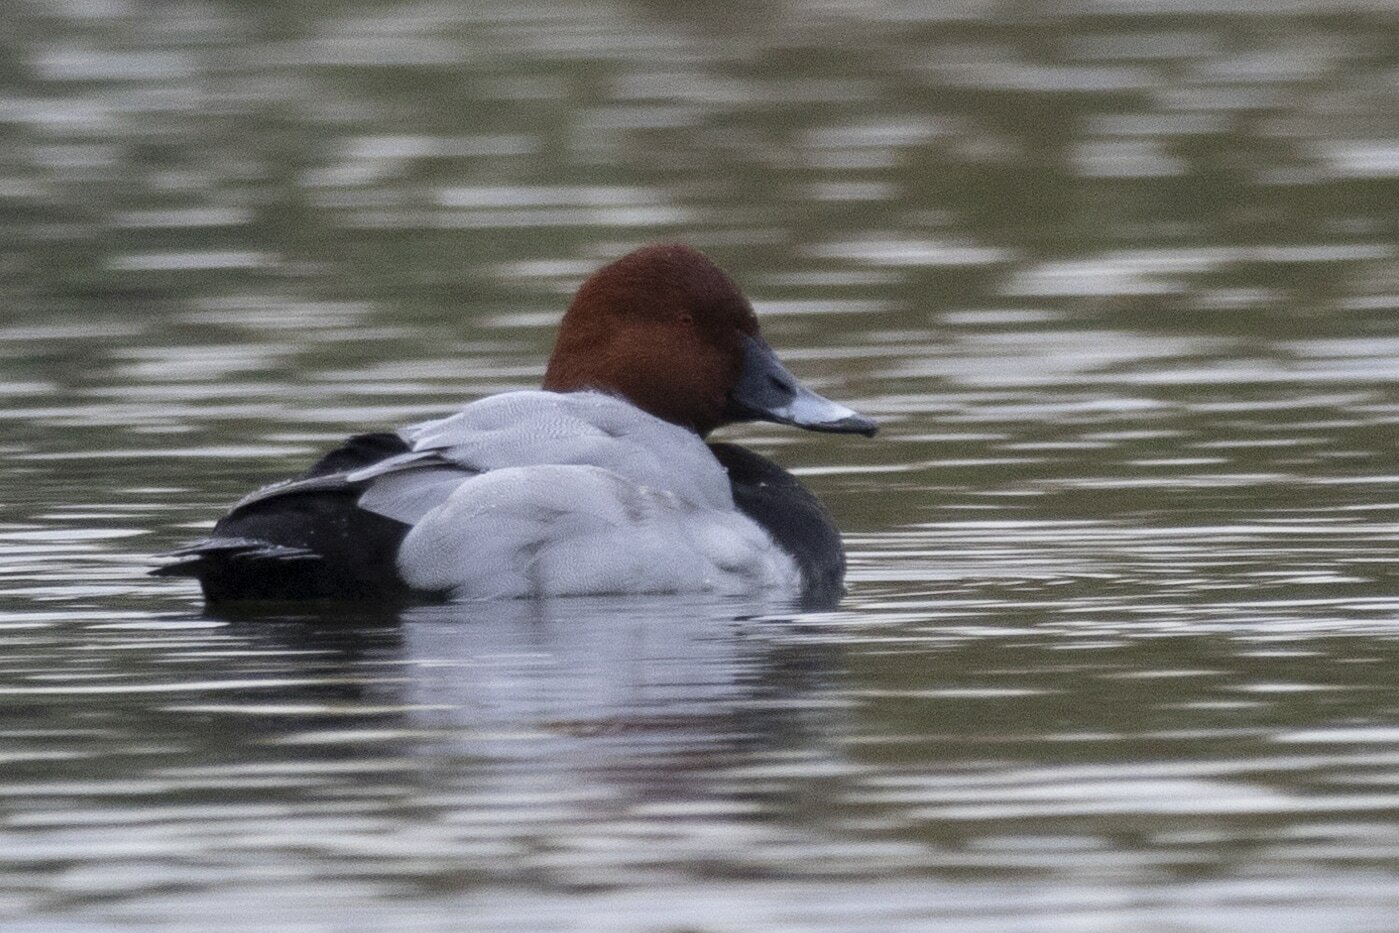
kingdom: Animalia
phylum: Chordata
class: Aves
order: Anseriformes
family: Anatidae
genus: Aythya
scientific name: Aythya ferina
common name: Common pochard
